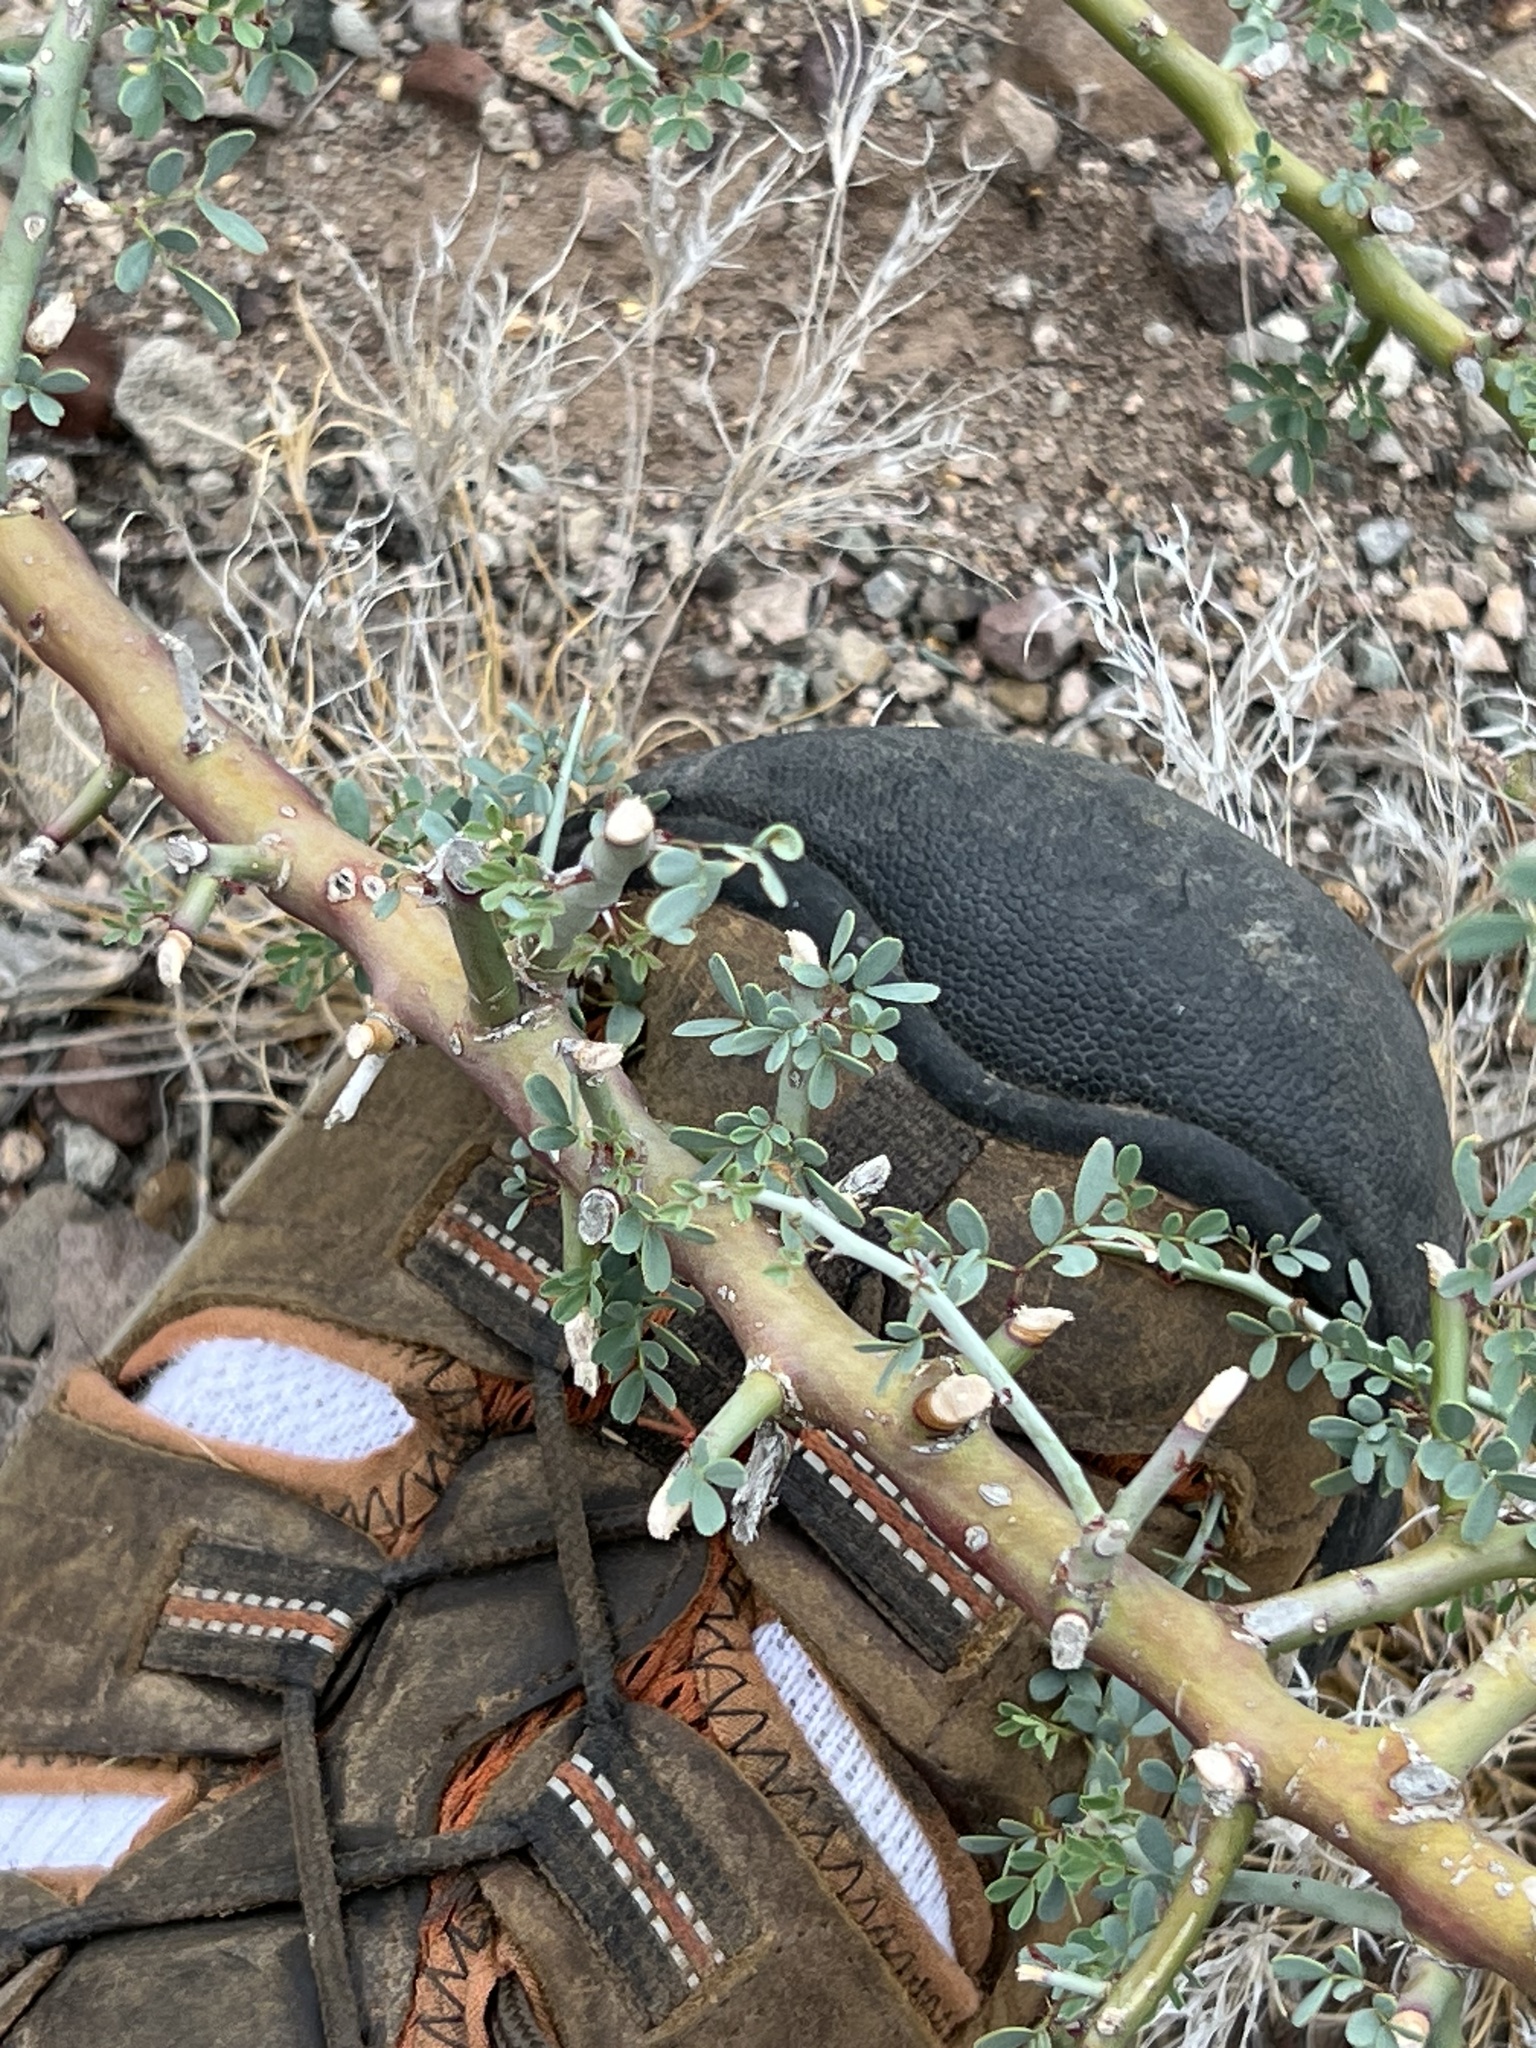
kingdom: Plantae
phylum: Tracheophyta
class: Magnoliopsida
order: Fabales
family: Fabaceae
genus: Parkinsonia
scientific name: Parkinsonia florida
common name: Blue paloverde
